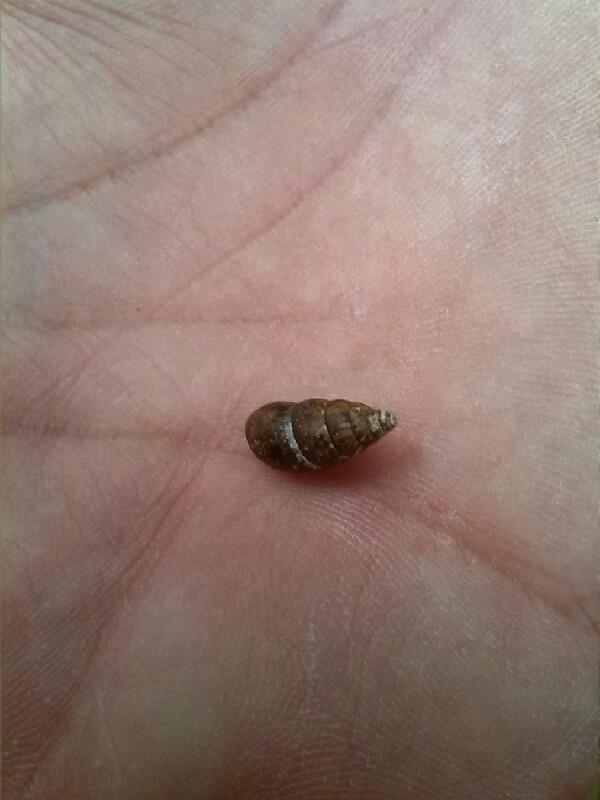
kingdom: Animalia
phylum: Mollusca
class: Gastropoda
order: Stylommatophora
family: Enidae
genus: Merdigera
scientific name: Merdigera obscura
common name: Lesser bulin
